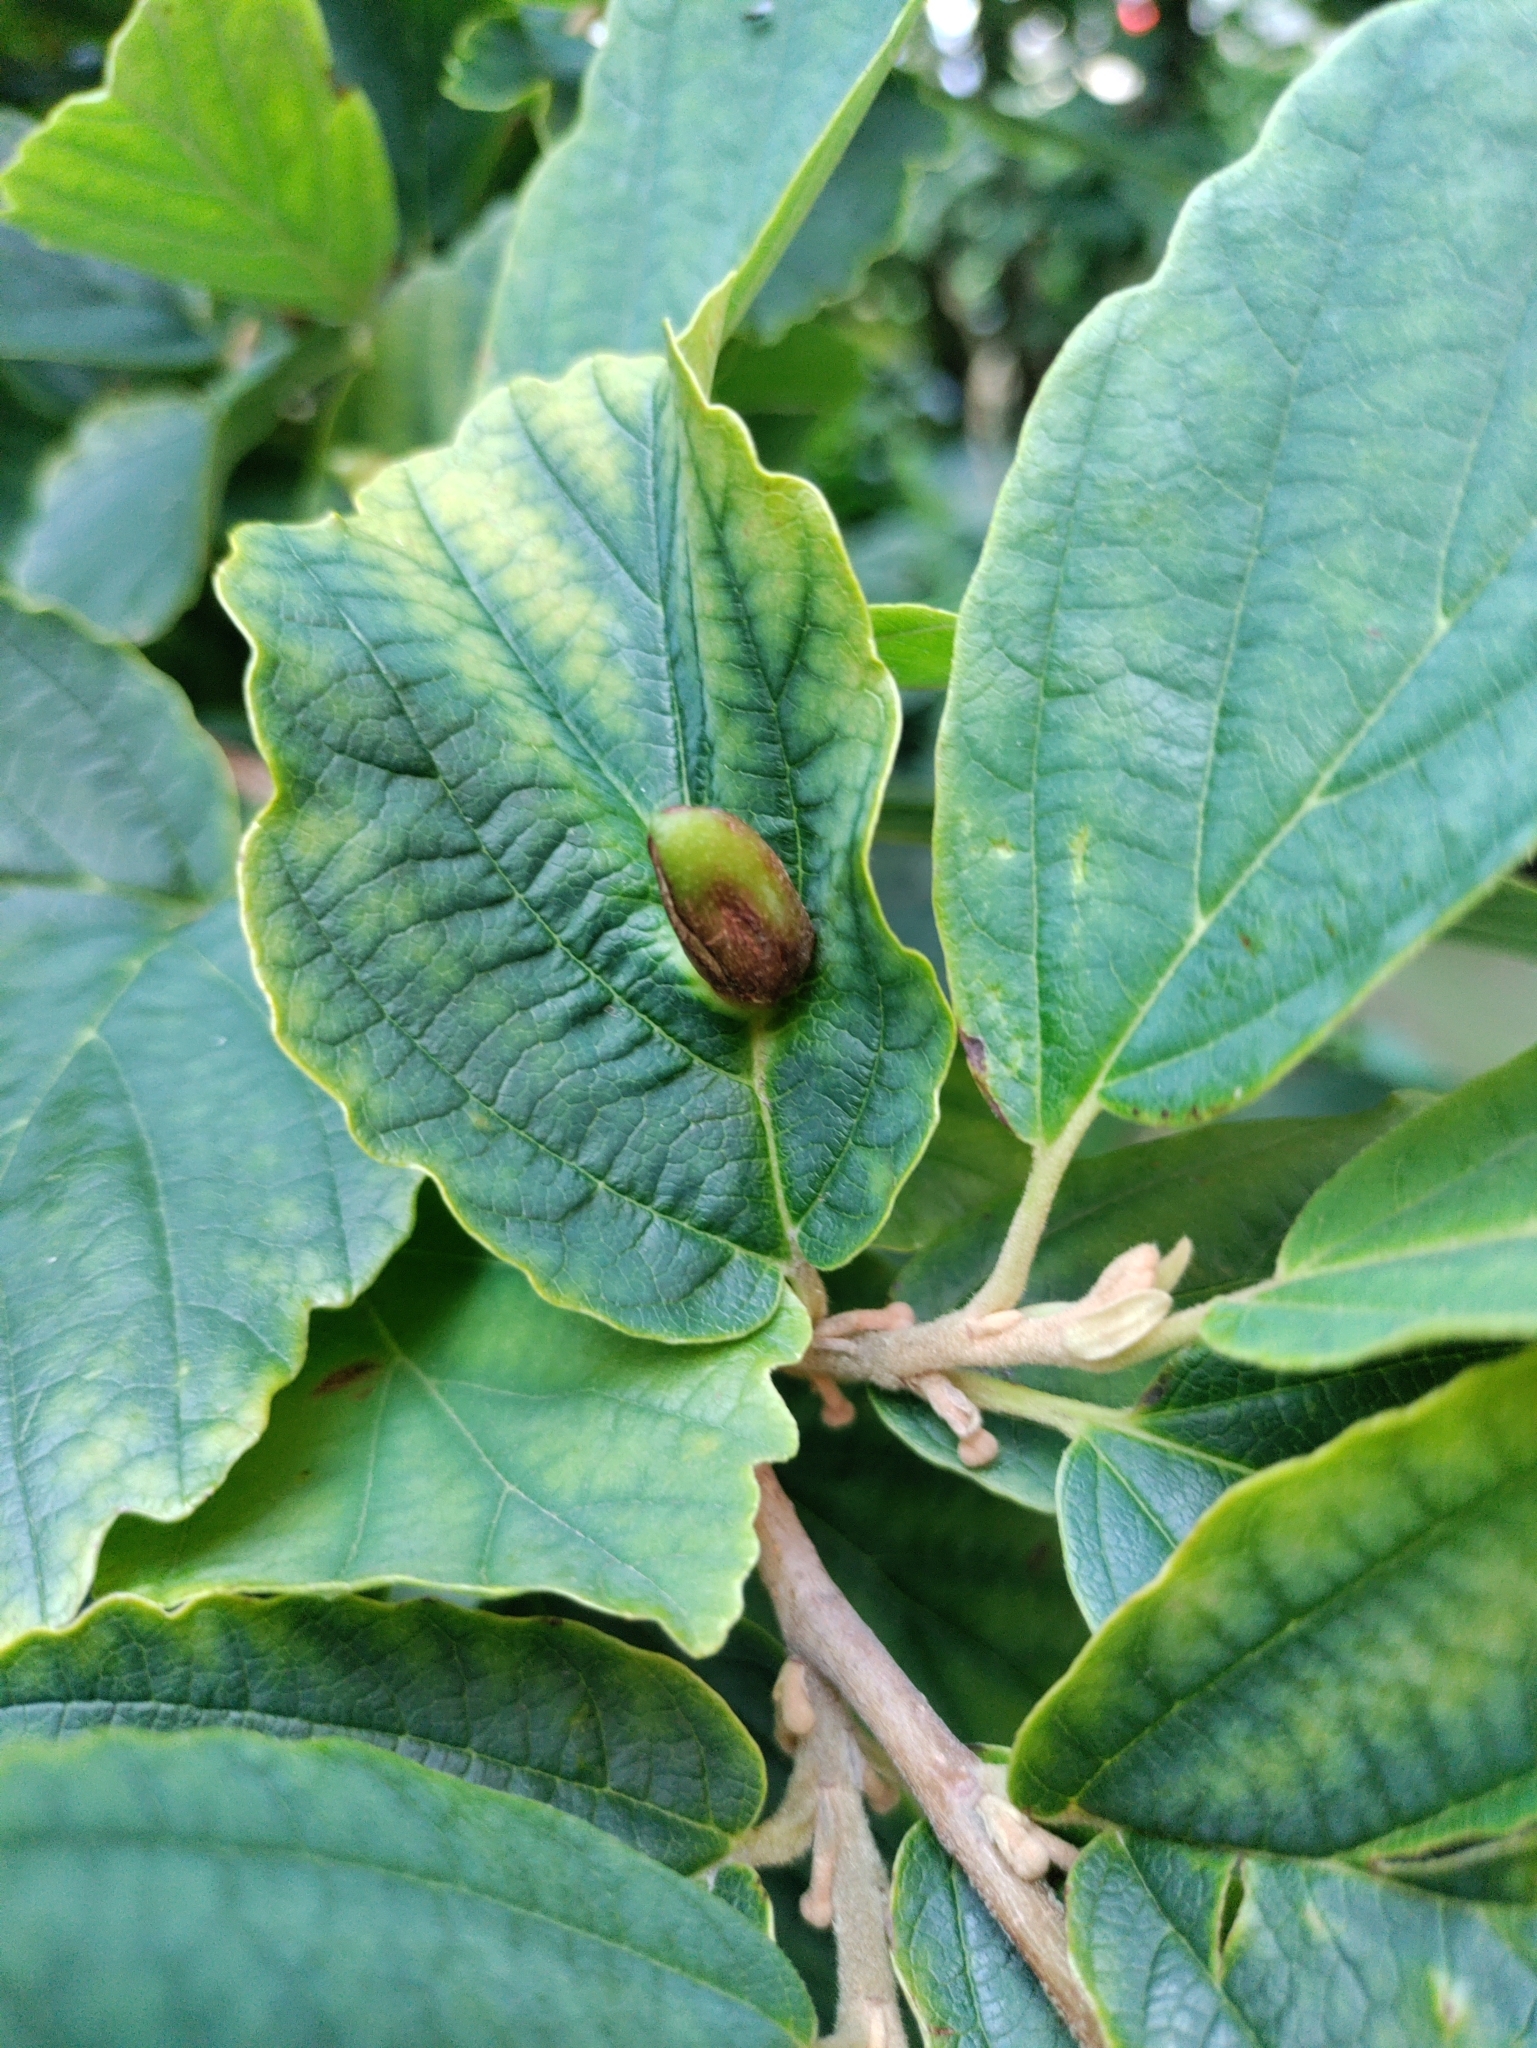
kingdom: Animalia
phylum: Arthropoda
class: Insecta
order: Hemiptera
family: Aphididae
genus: Hormaphis
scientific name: Hormaphis hamamelidis
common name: Witch-hazel cone gall aphid
